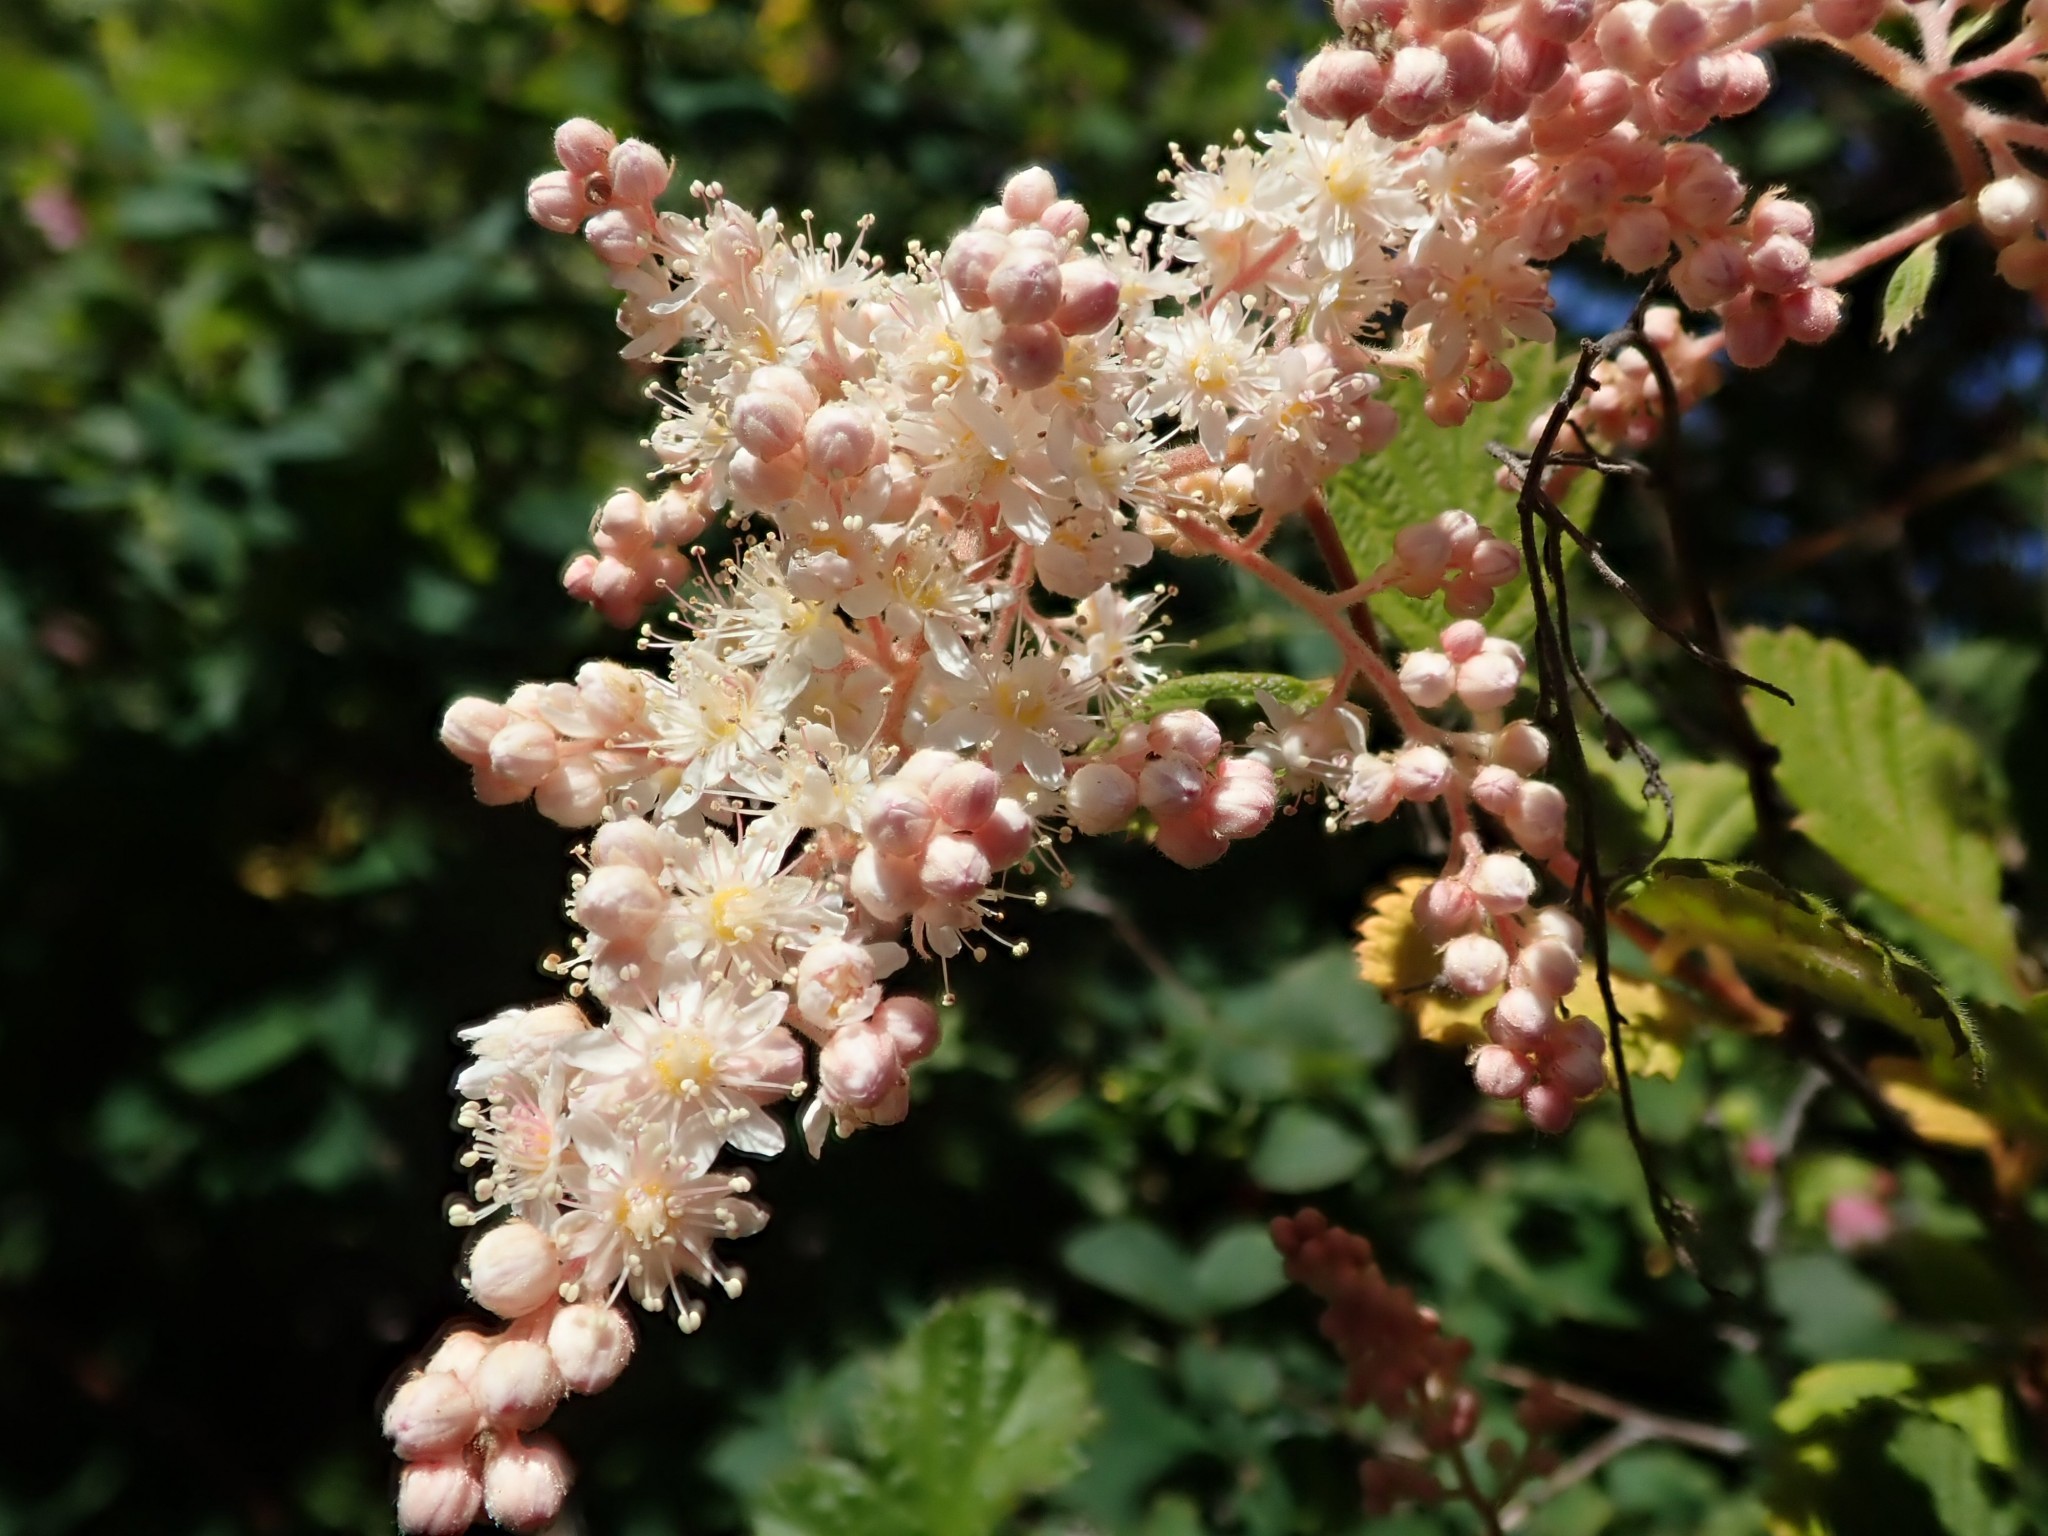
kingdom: Plantae
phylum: Tracheophyta
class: Magnoliopsida
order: Rosales
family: Rosaceae
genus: Holodiscus
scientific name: Holodiscus discolor
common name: Oceanspray
